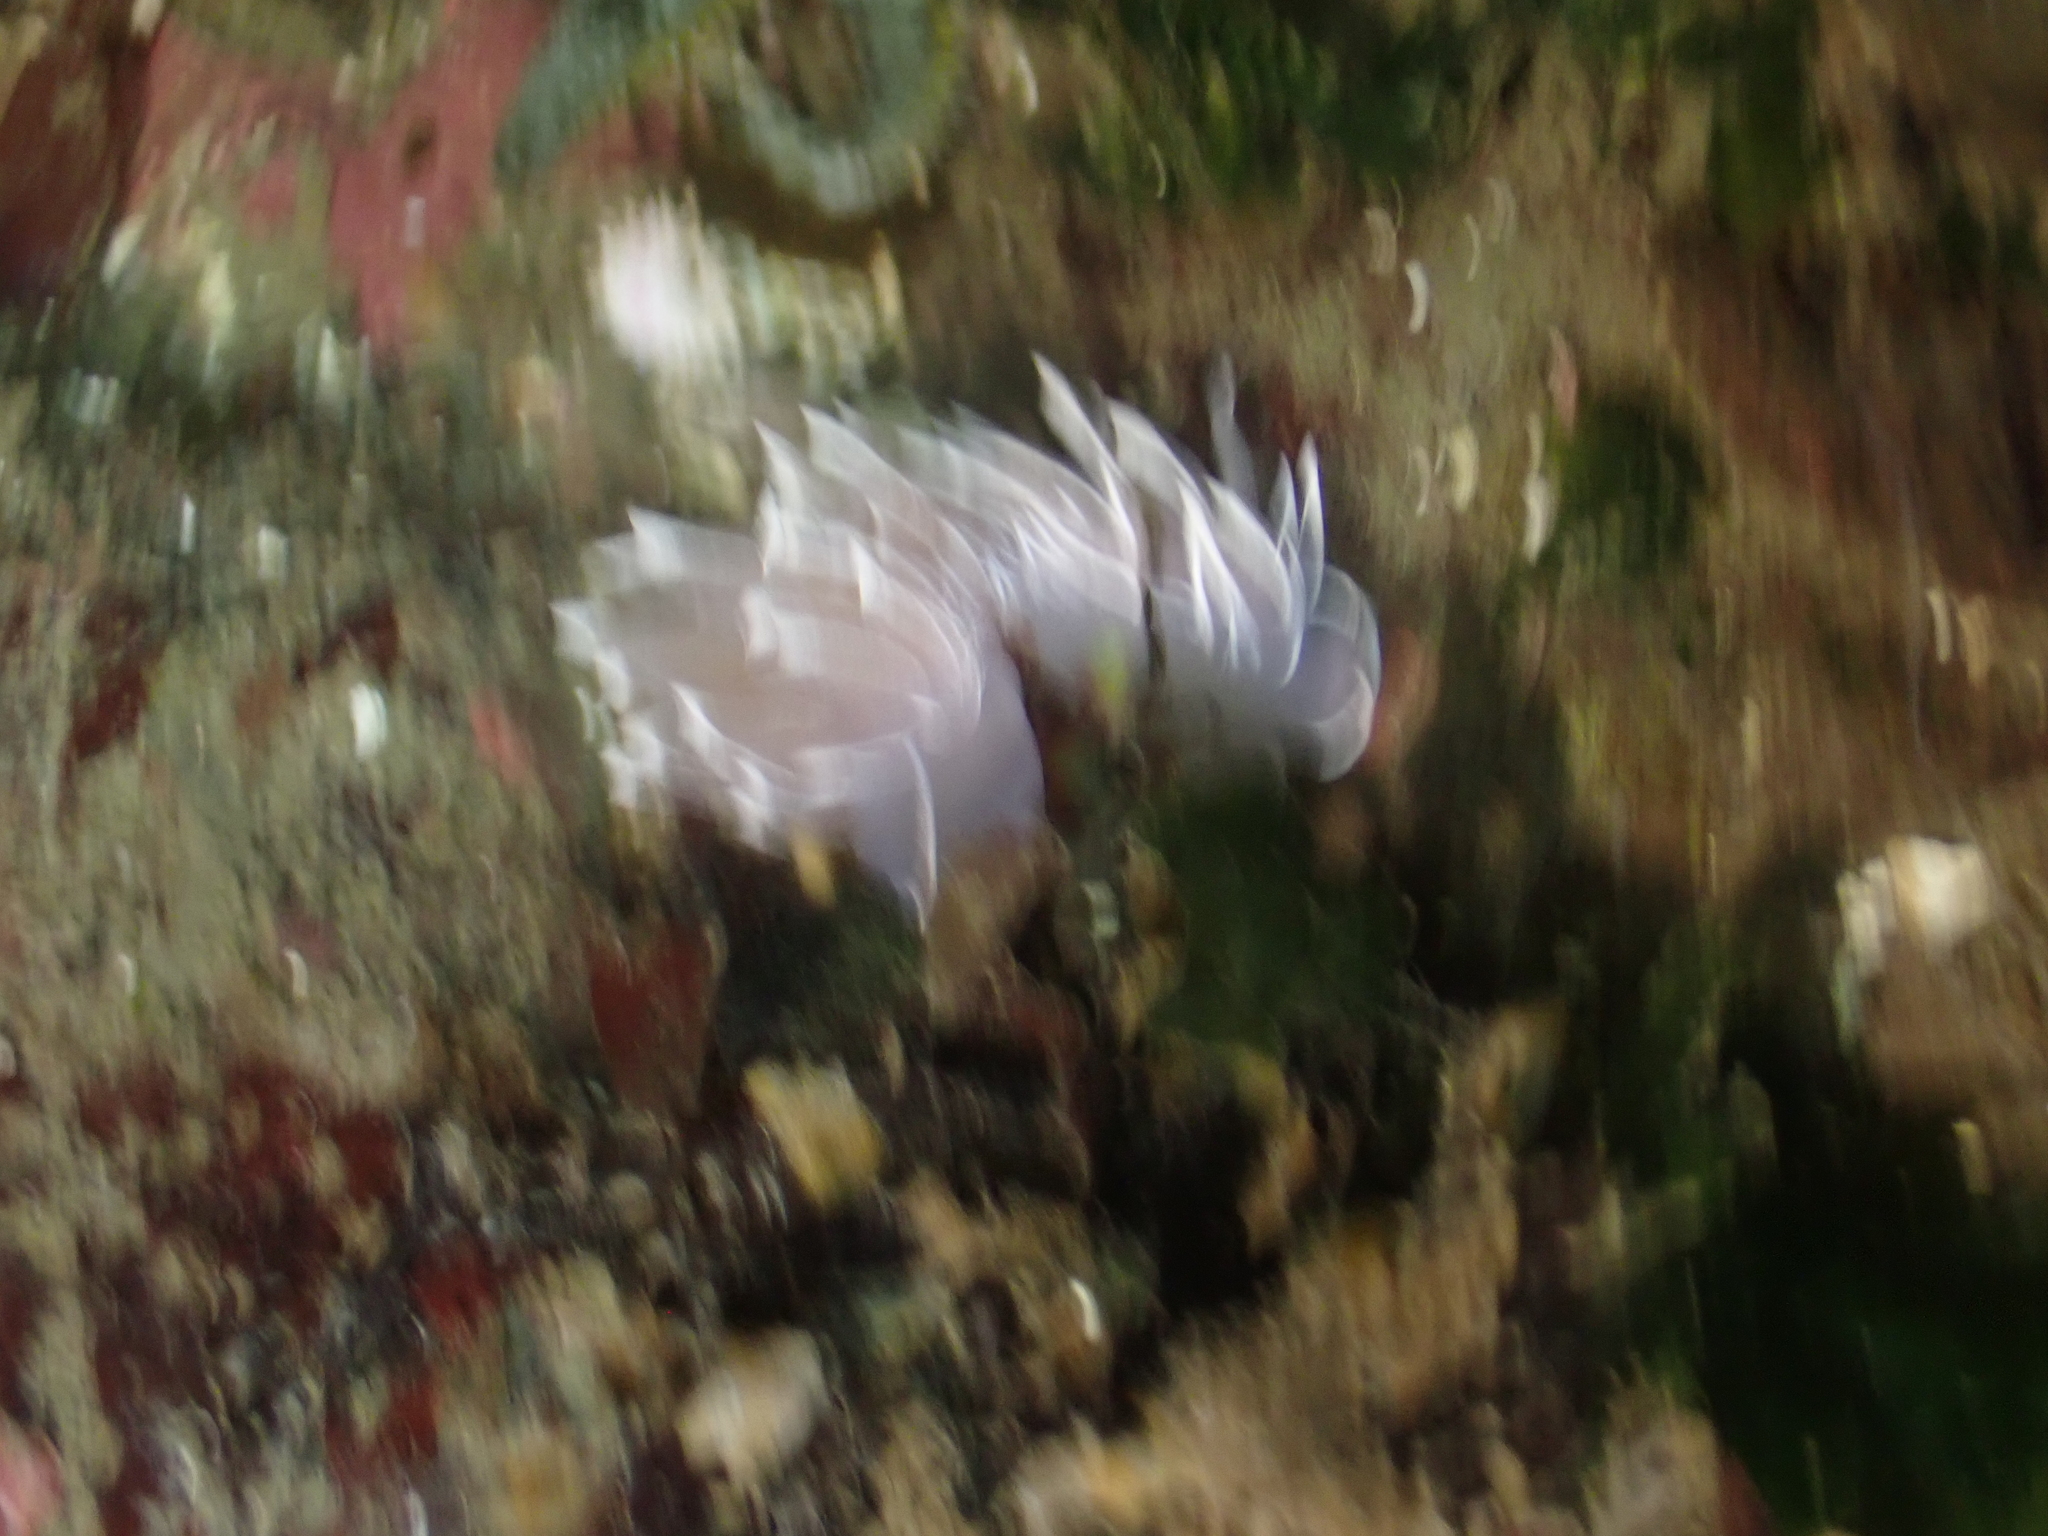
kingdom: Animalia
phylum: Mollusca
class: Gastropoda
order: Nudibranchia
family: Dironidae
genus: Dirona
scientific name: Dirona albolineata
